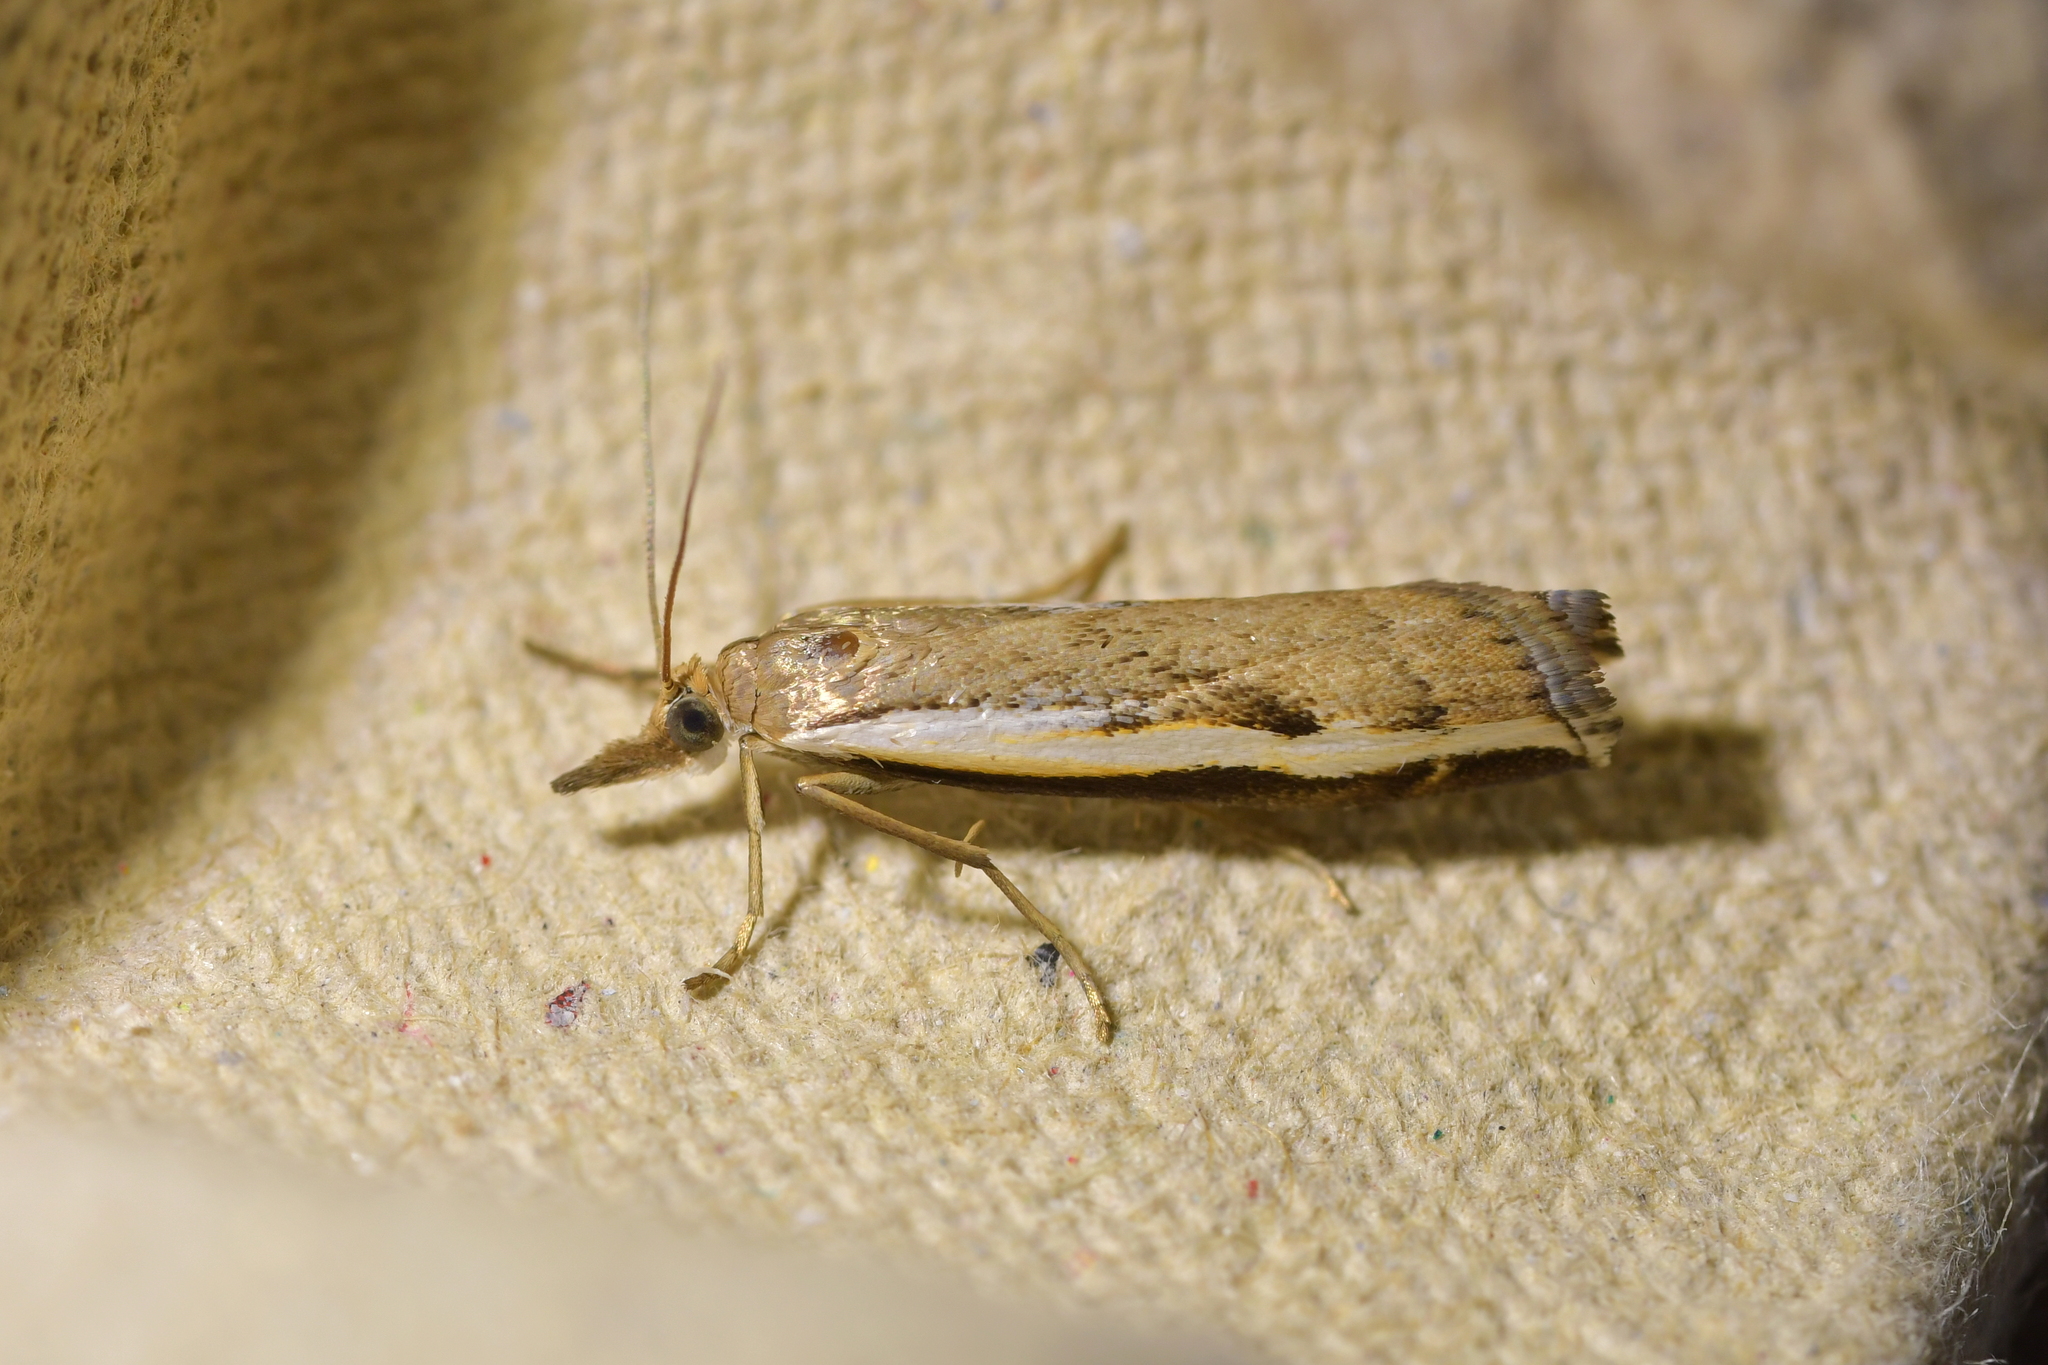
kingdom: Animalia
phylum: Arthropoda
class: Insecta
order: Lepidoptera
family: Crambidae
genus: Orocrambus
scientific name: Orocrambus flexuosellus
